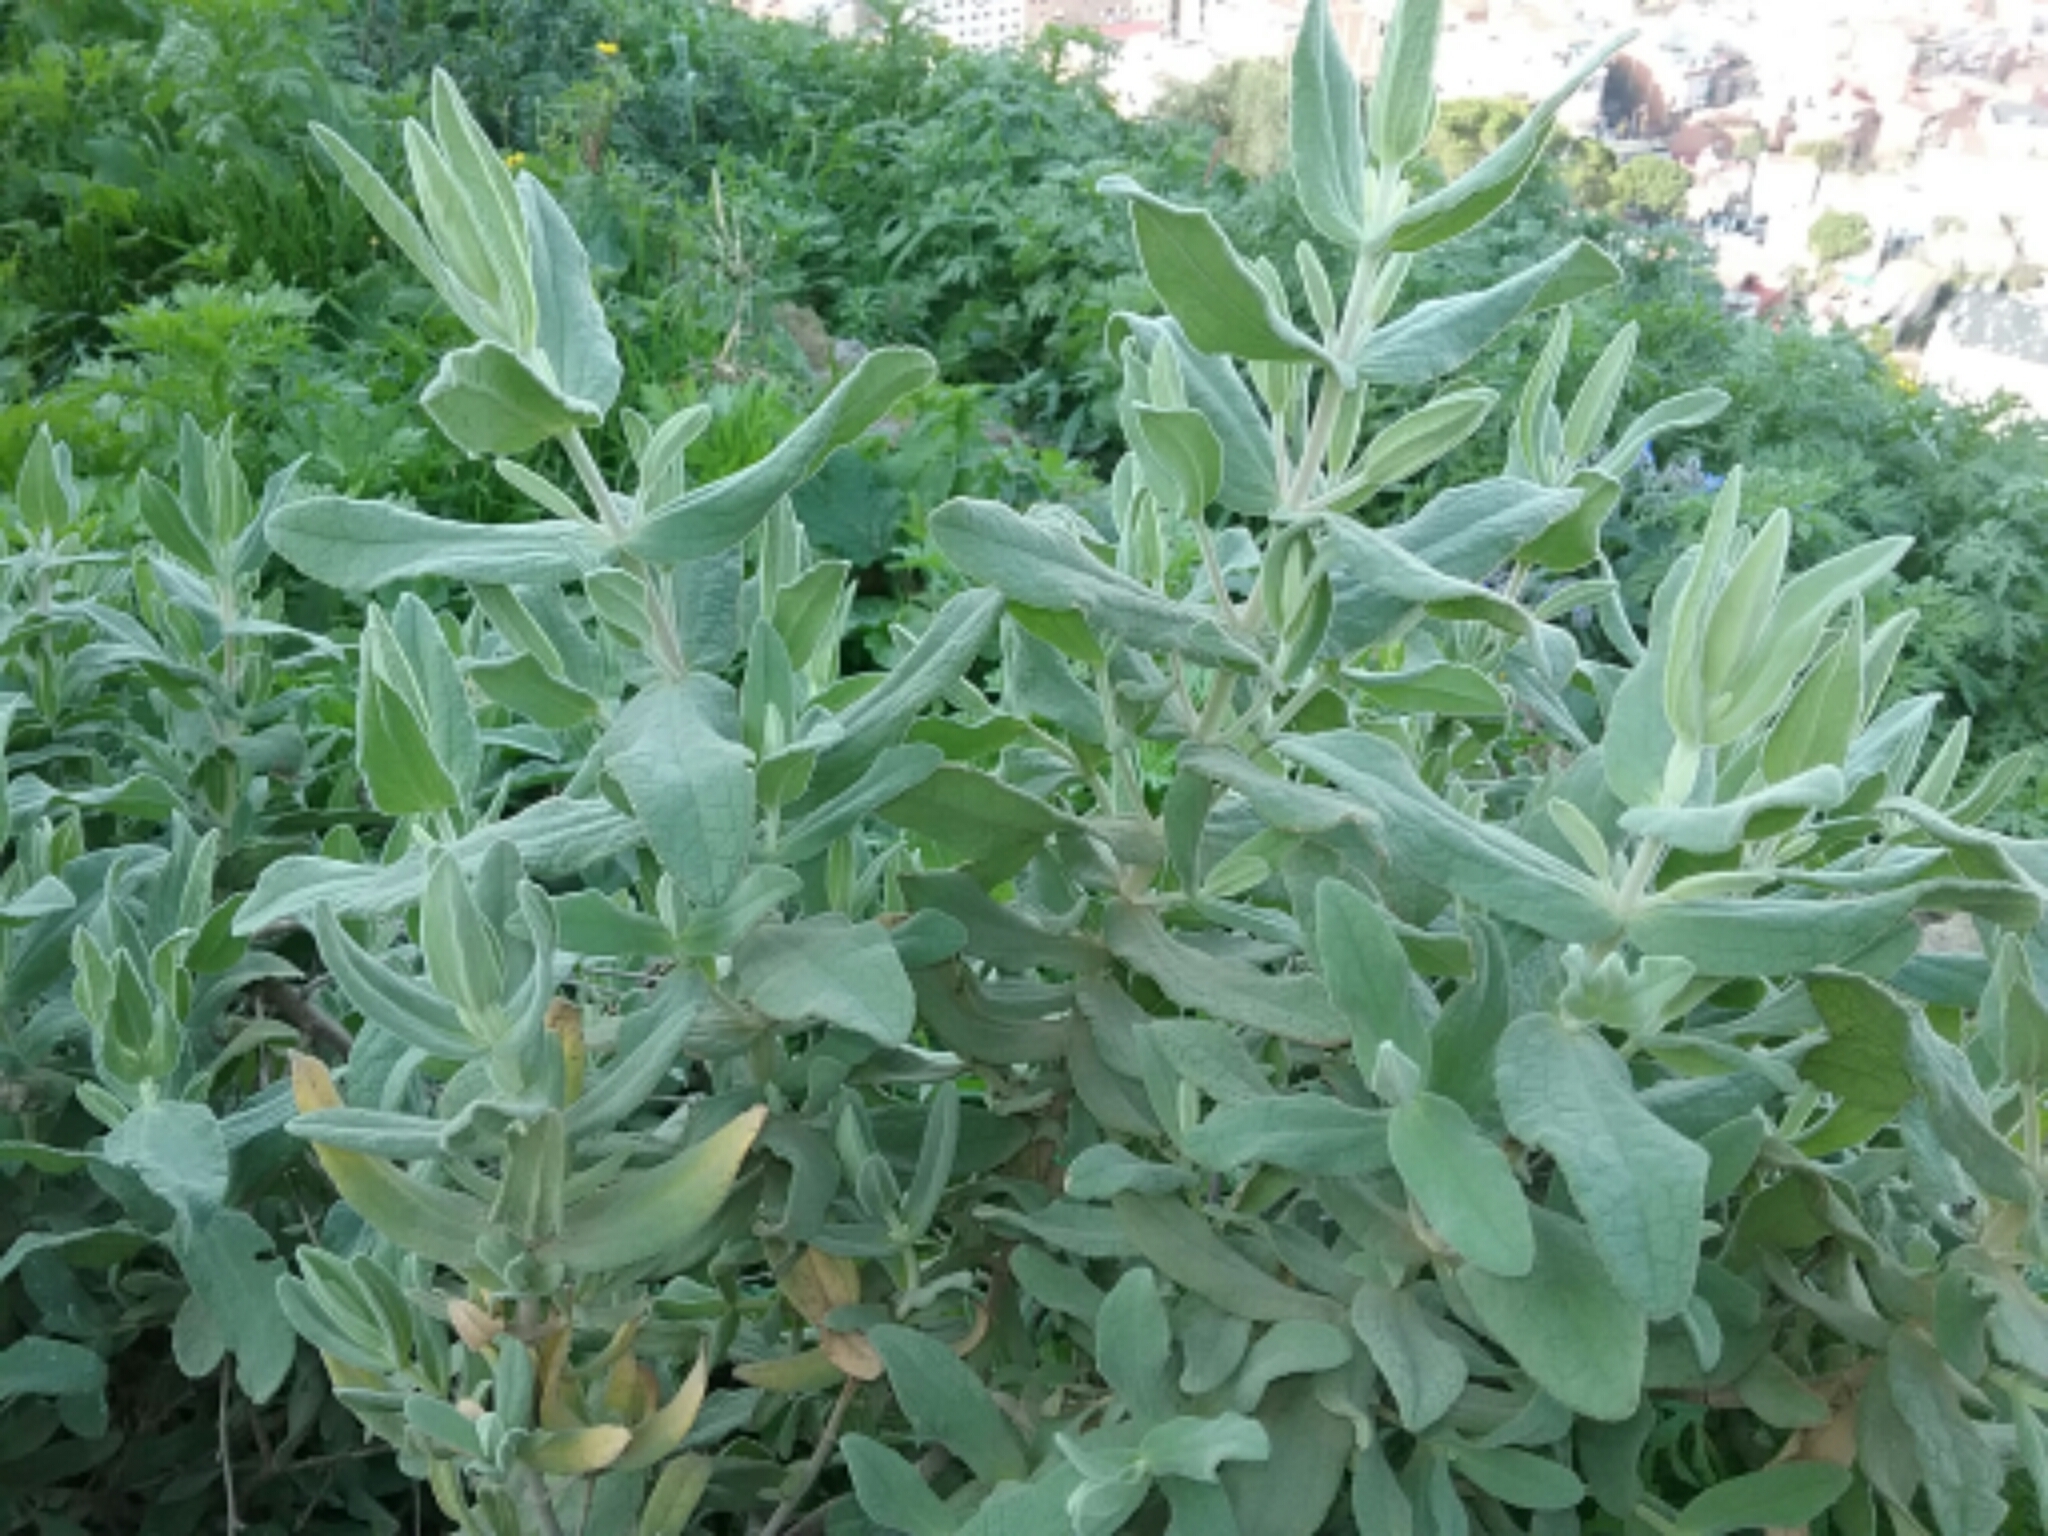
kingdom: Plantae
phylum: Tracheophyta
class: Magnoliopsida
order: Malvales
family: Cistaceae
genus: Cistus
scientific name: Cistus albidus
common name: White-leaf rock-rose
